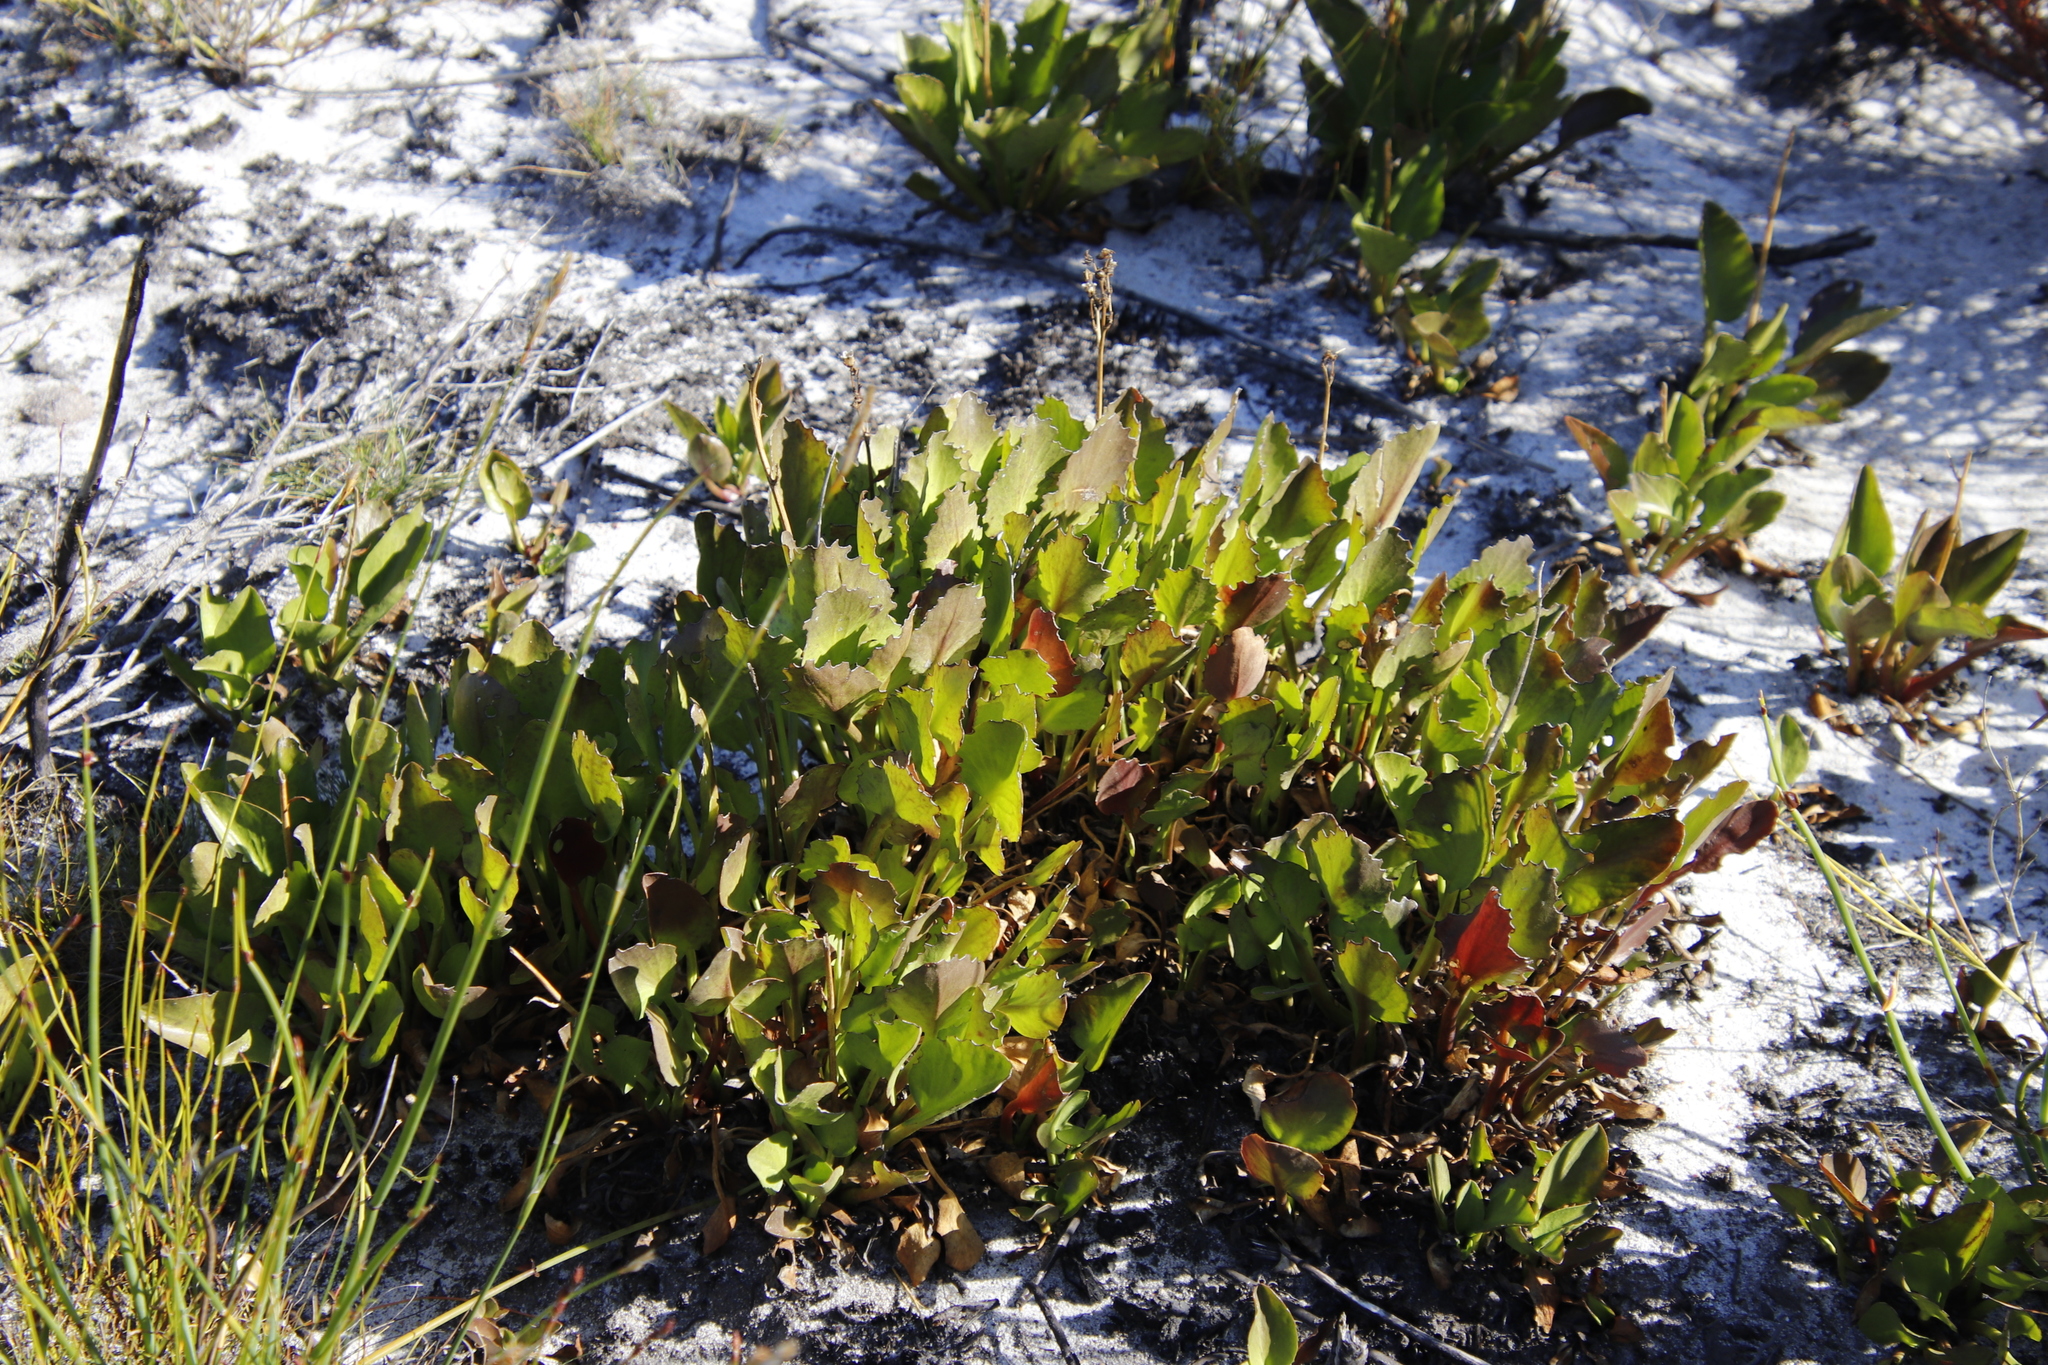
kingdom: Plantae
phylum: Tracheophyta
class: Magnoliopsida
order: Asterales
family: Menyanthaceae
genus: Villarsia
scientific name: Villarsia goldblattiana
